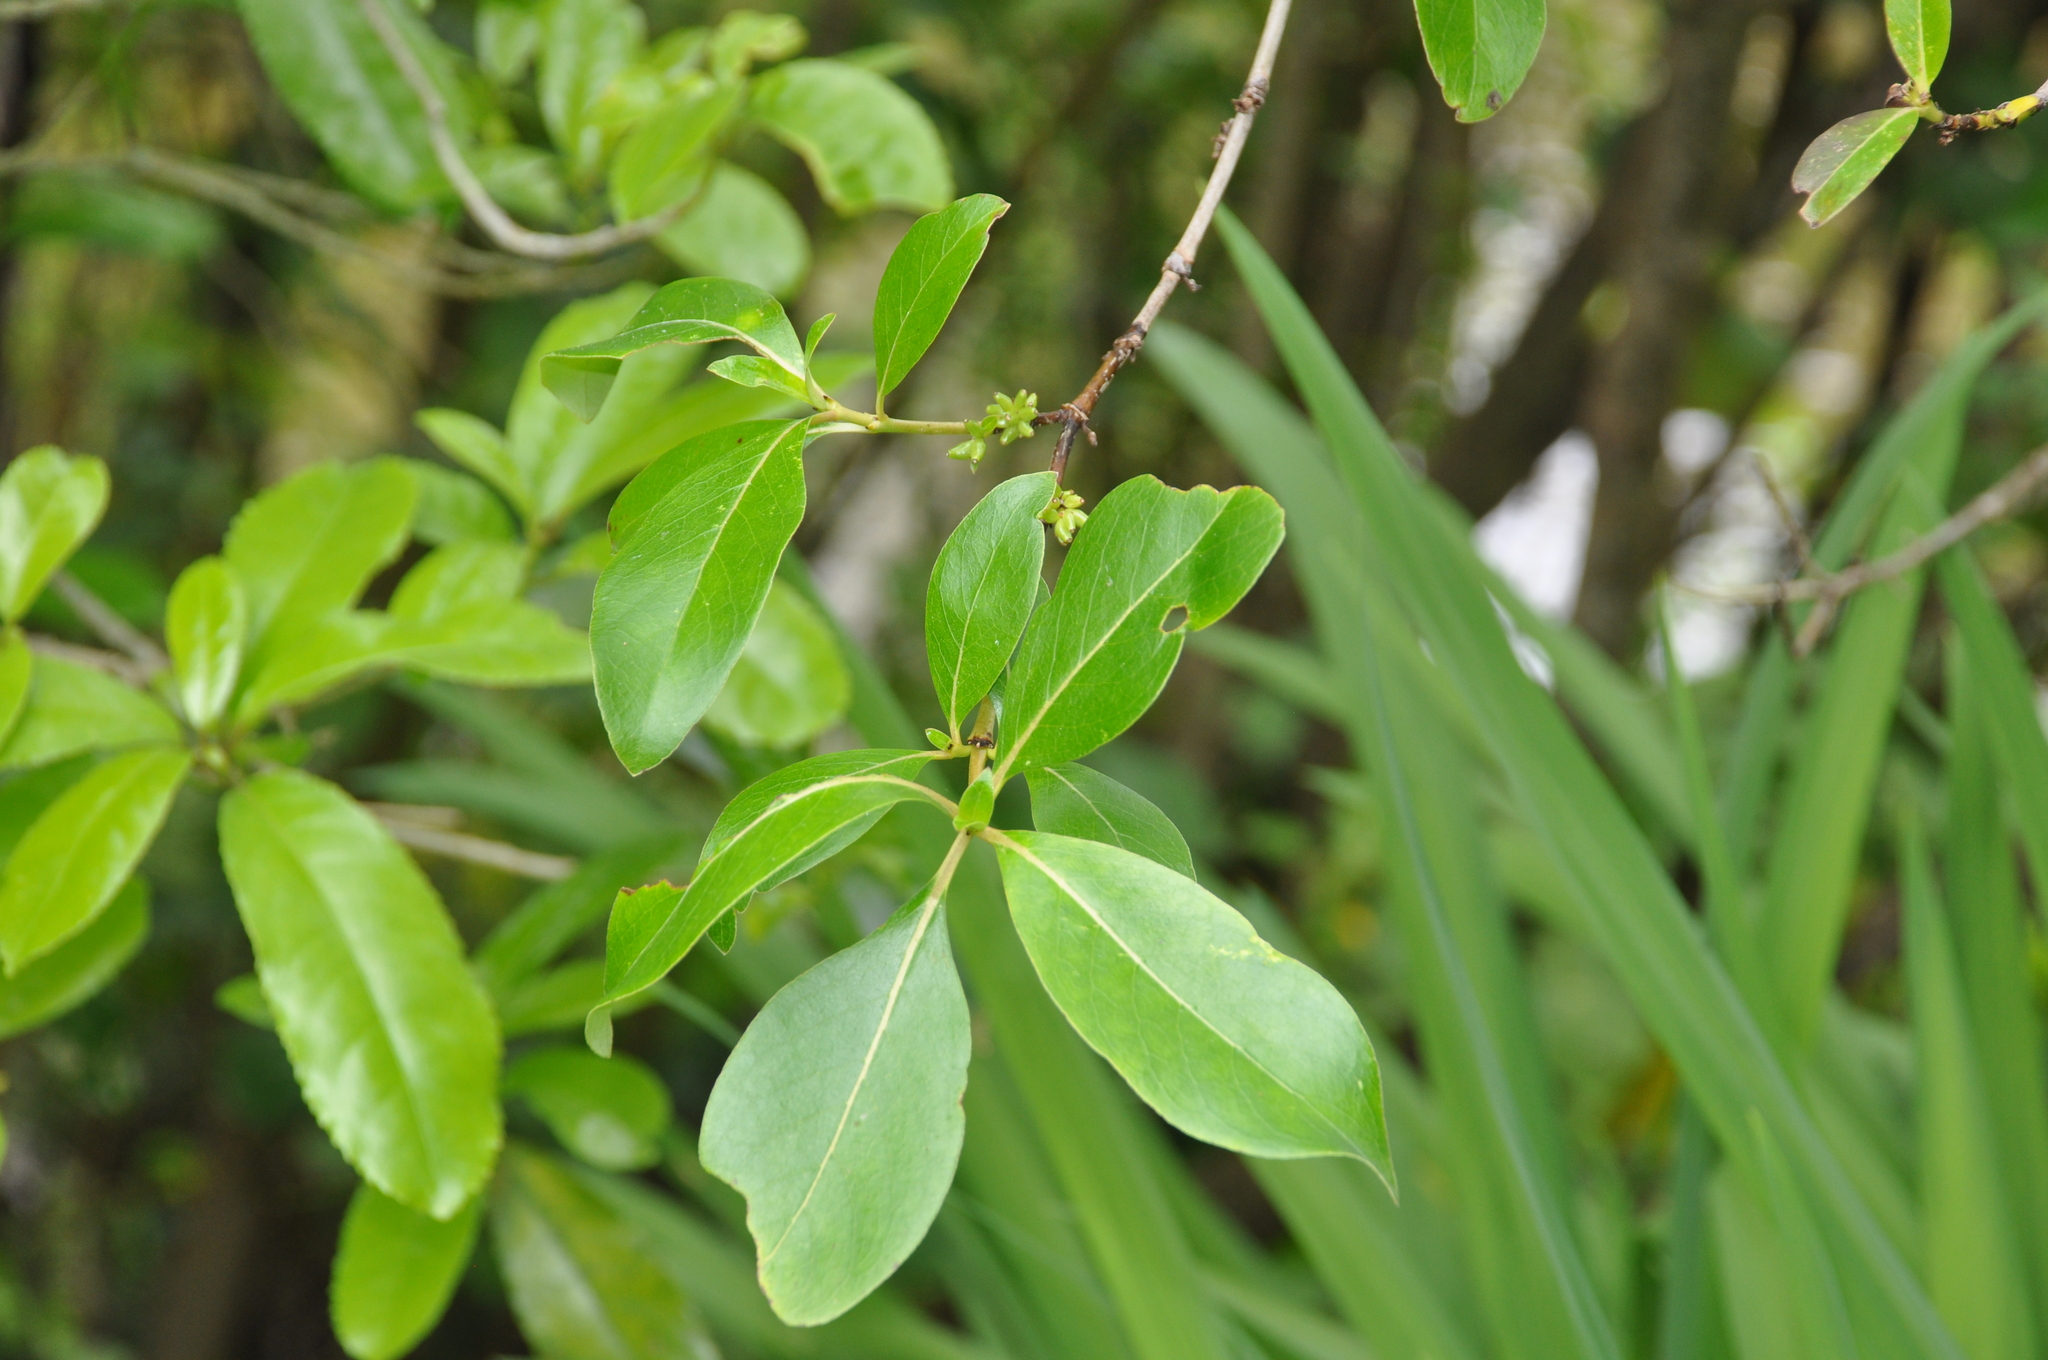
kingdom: Plantae
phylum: Tracheophyta
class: Magnoliopsida
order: Gentianales
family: Rubiaceae
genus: Coprosma
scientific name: Coprosma robusta
